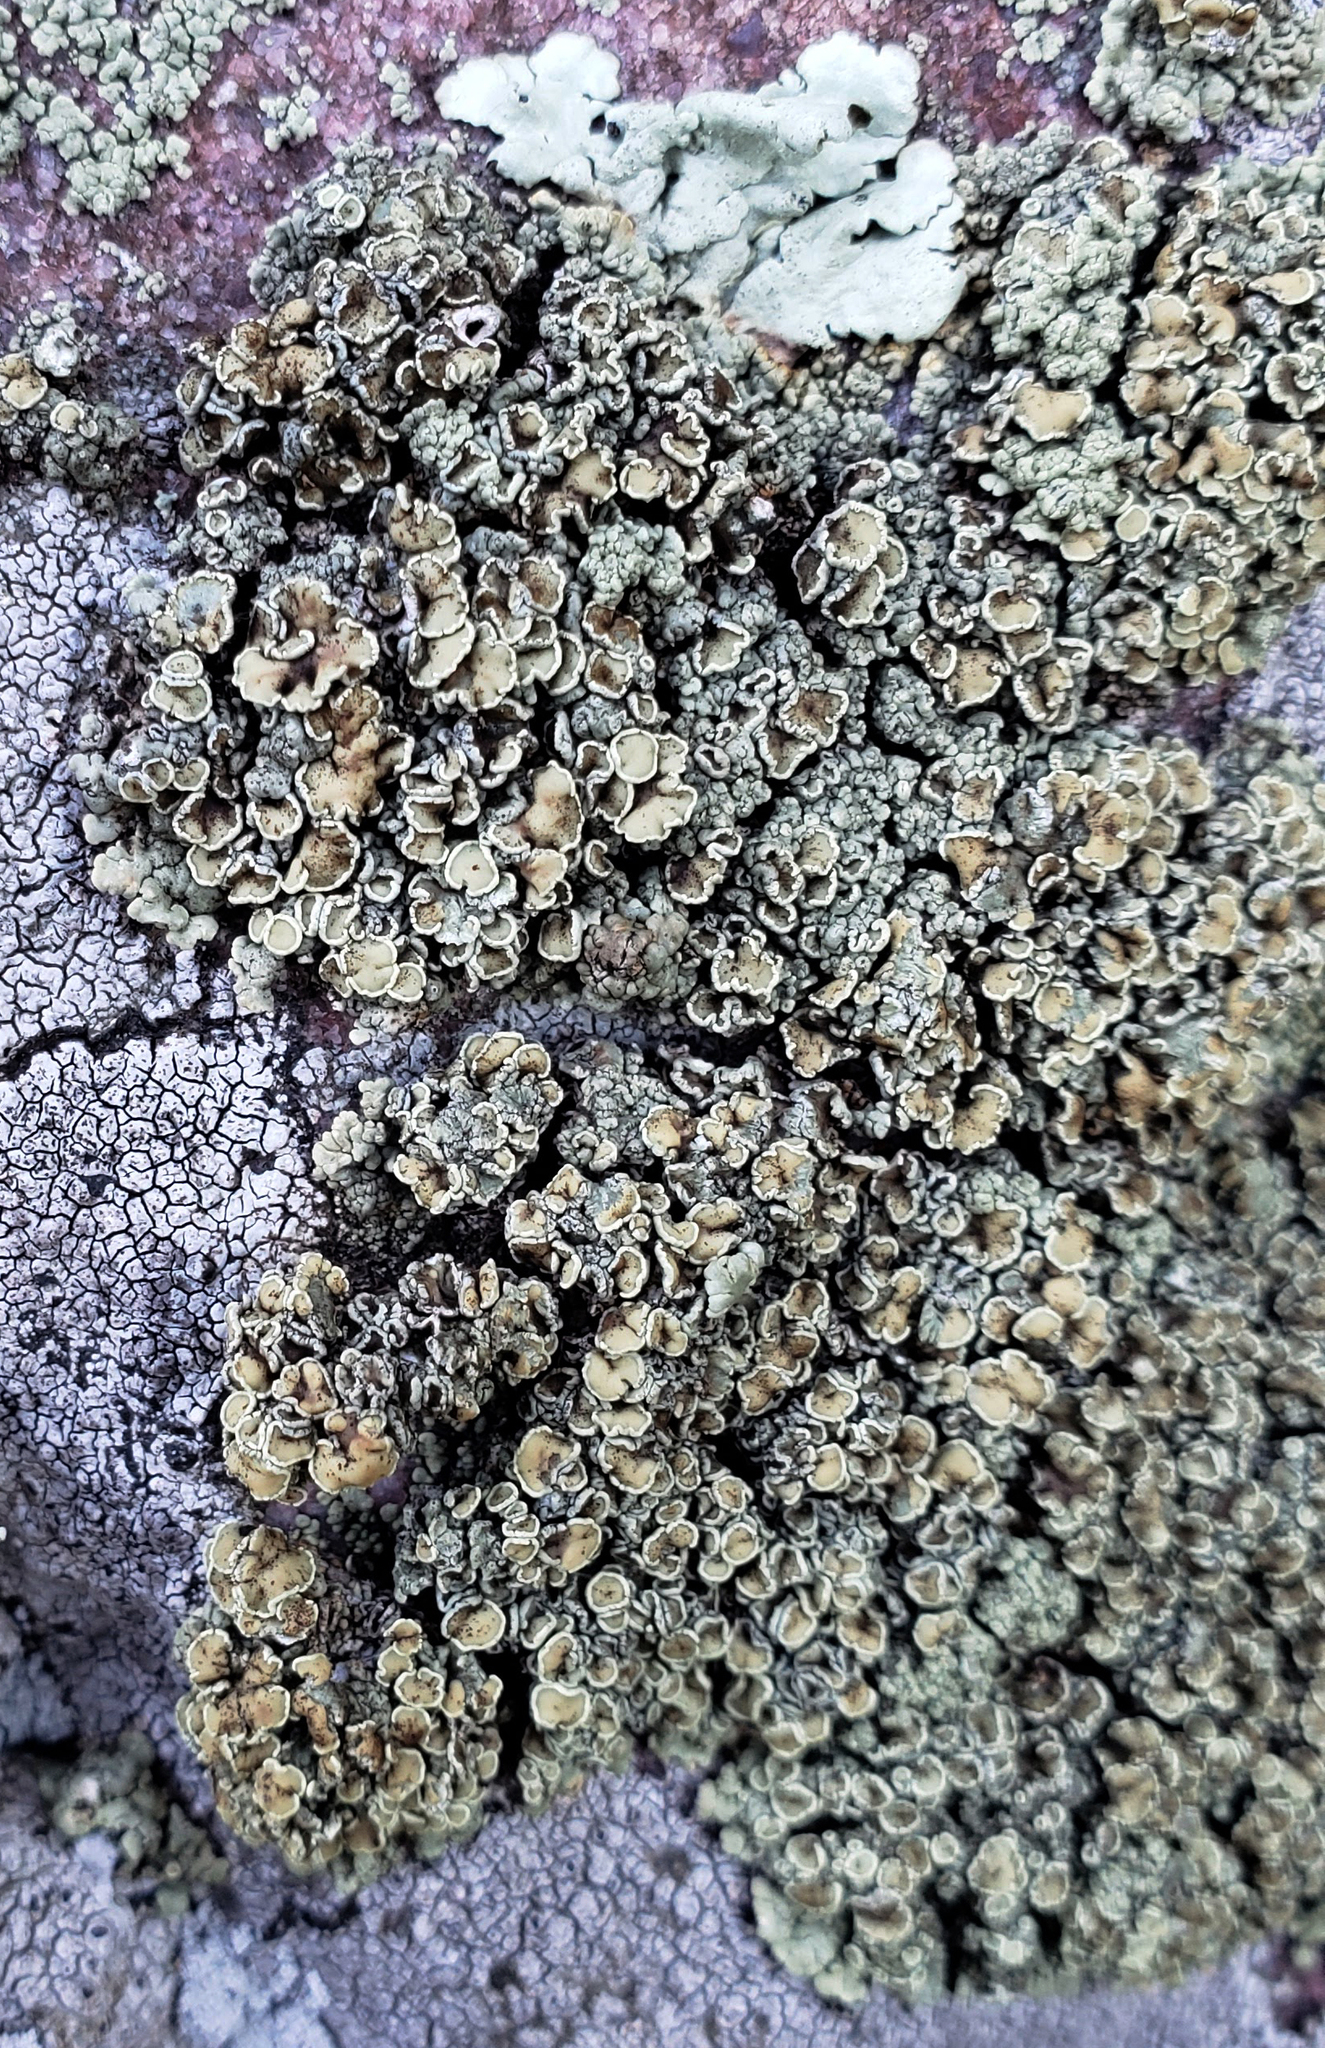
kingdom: Fungi
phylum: Ascomycota
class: Lecanoromycetes
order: Lecanorales
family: Lecanoraceae
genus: Sedelnikovaea
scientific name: Sedelnikovaea subdiscrepans
